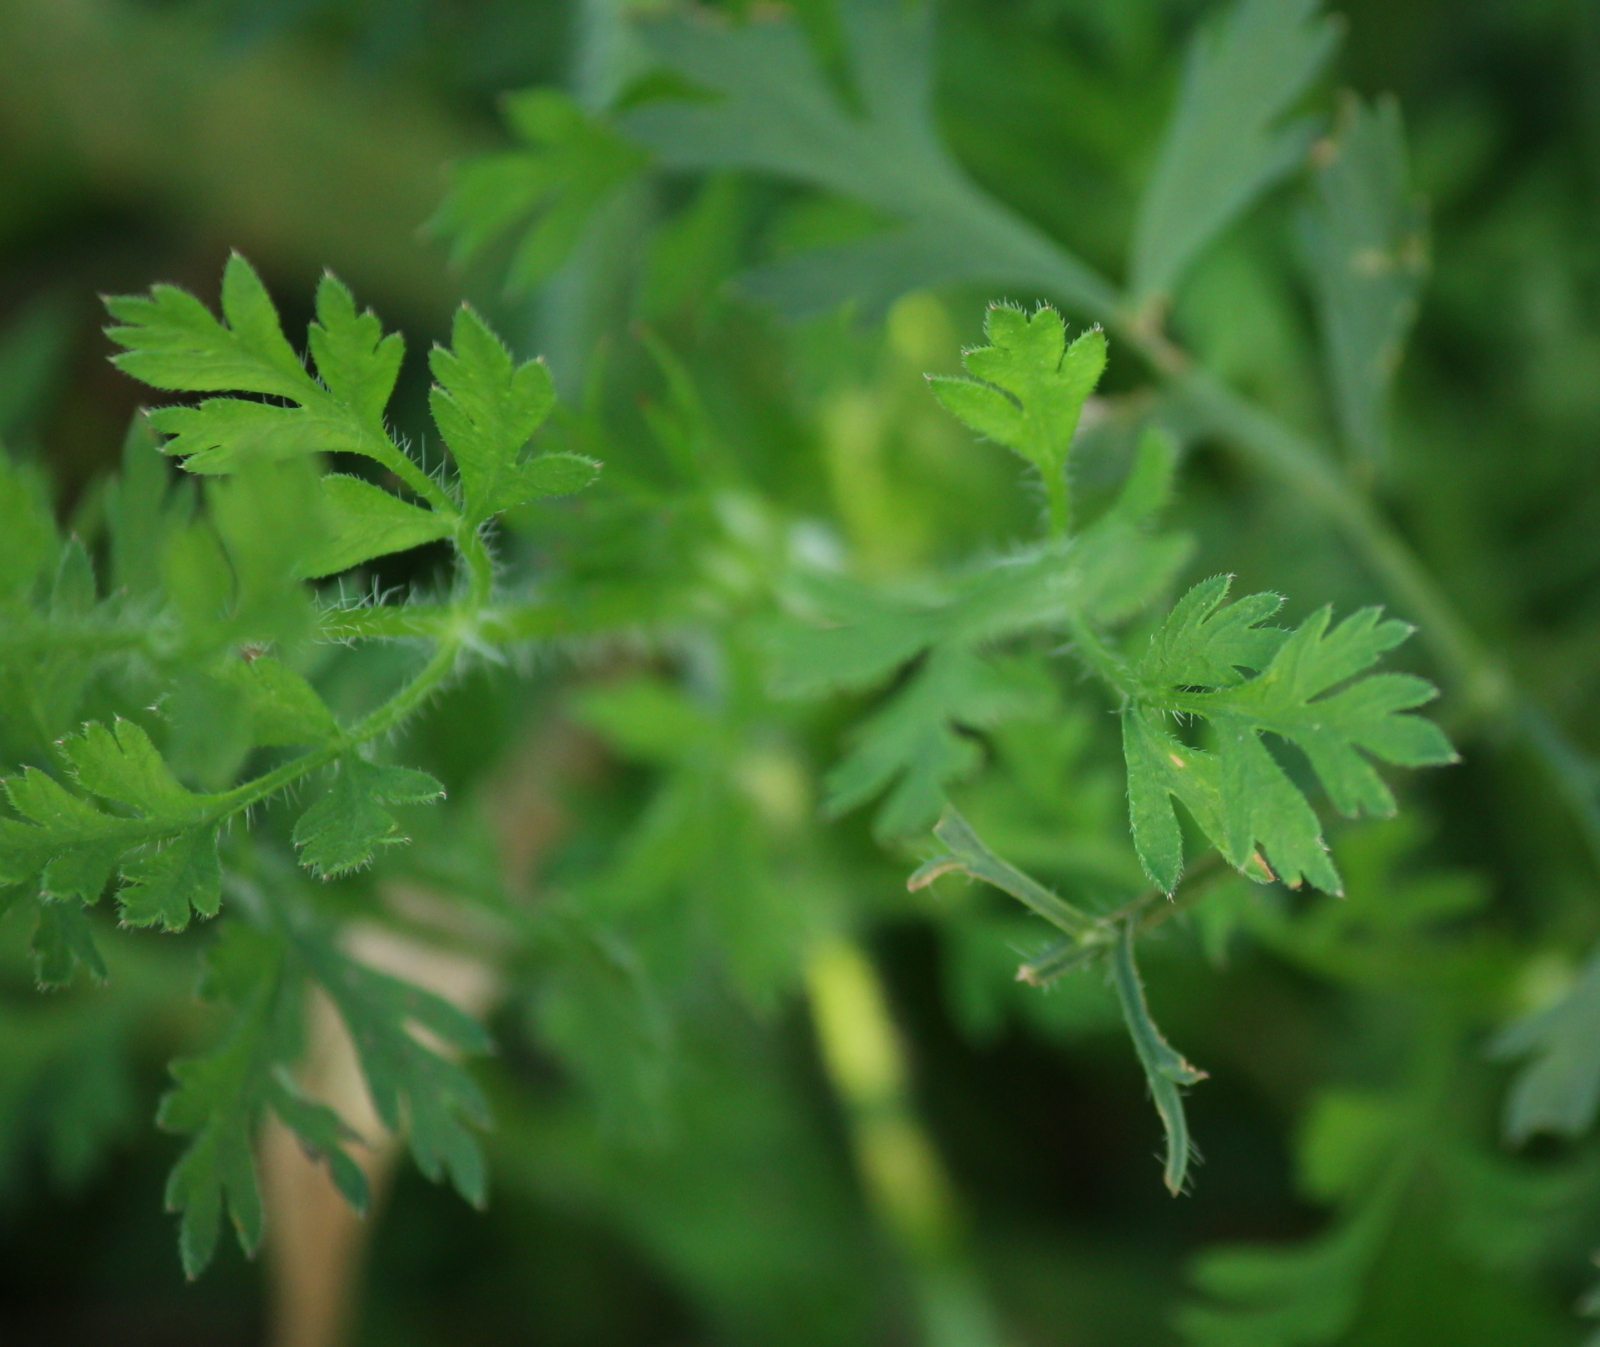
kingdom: Plantae
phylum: Tracheophyta
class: Magnoliopsida
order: Apiales
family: Apiaceae
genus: Daucus
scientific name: Daucus carota
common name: Wild carrot
